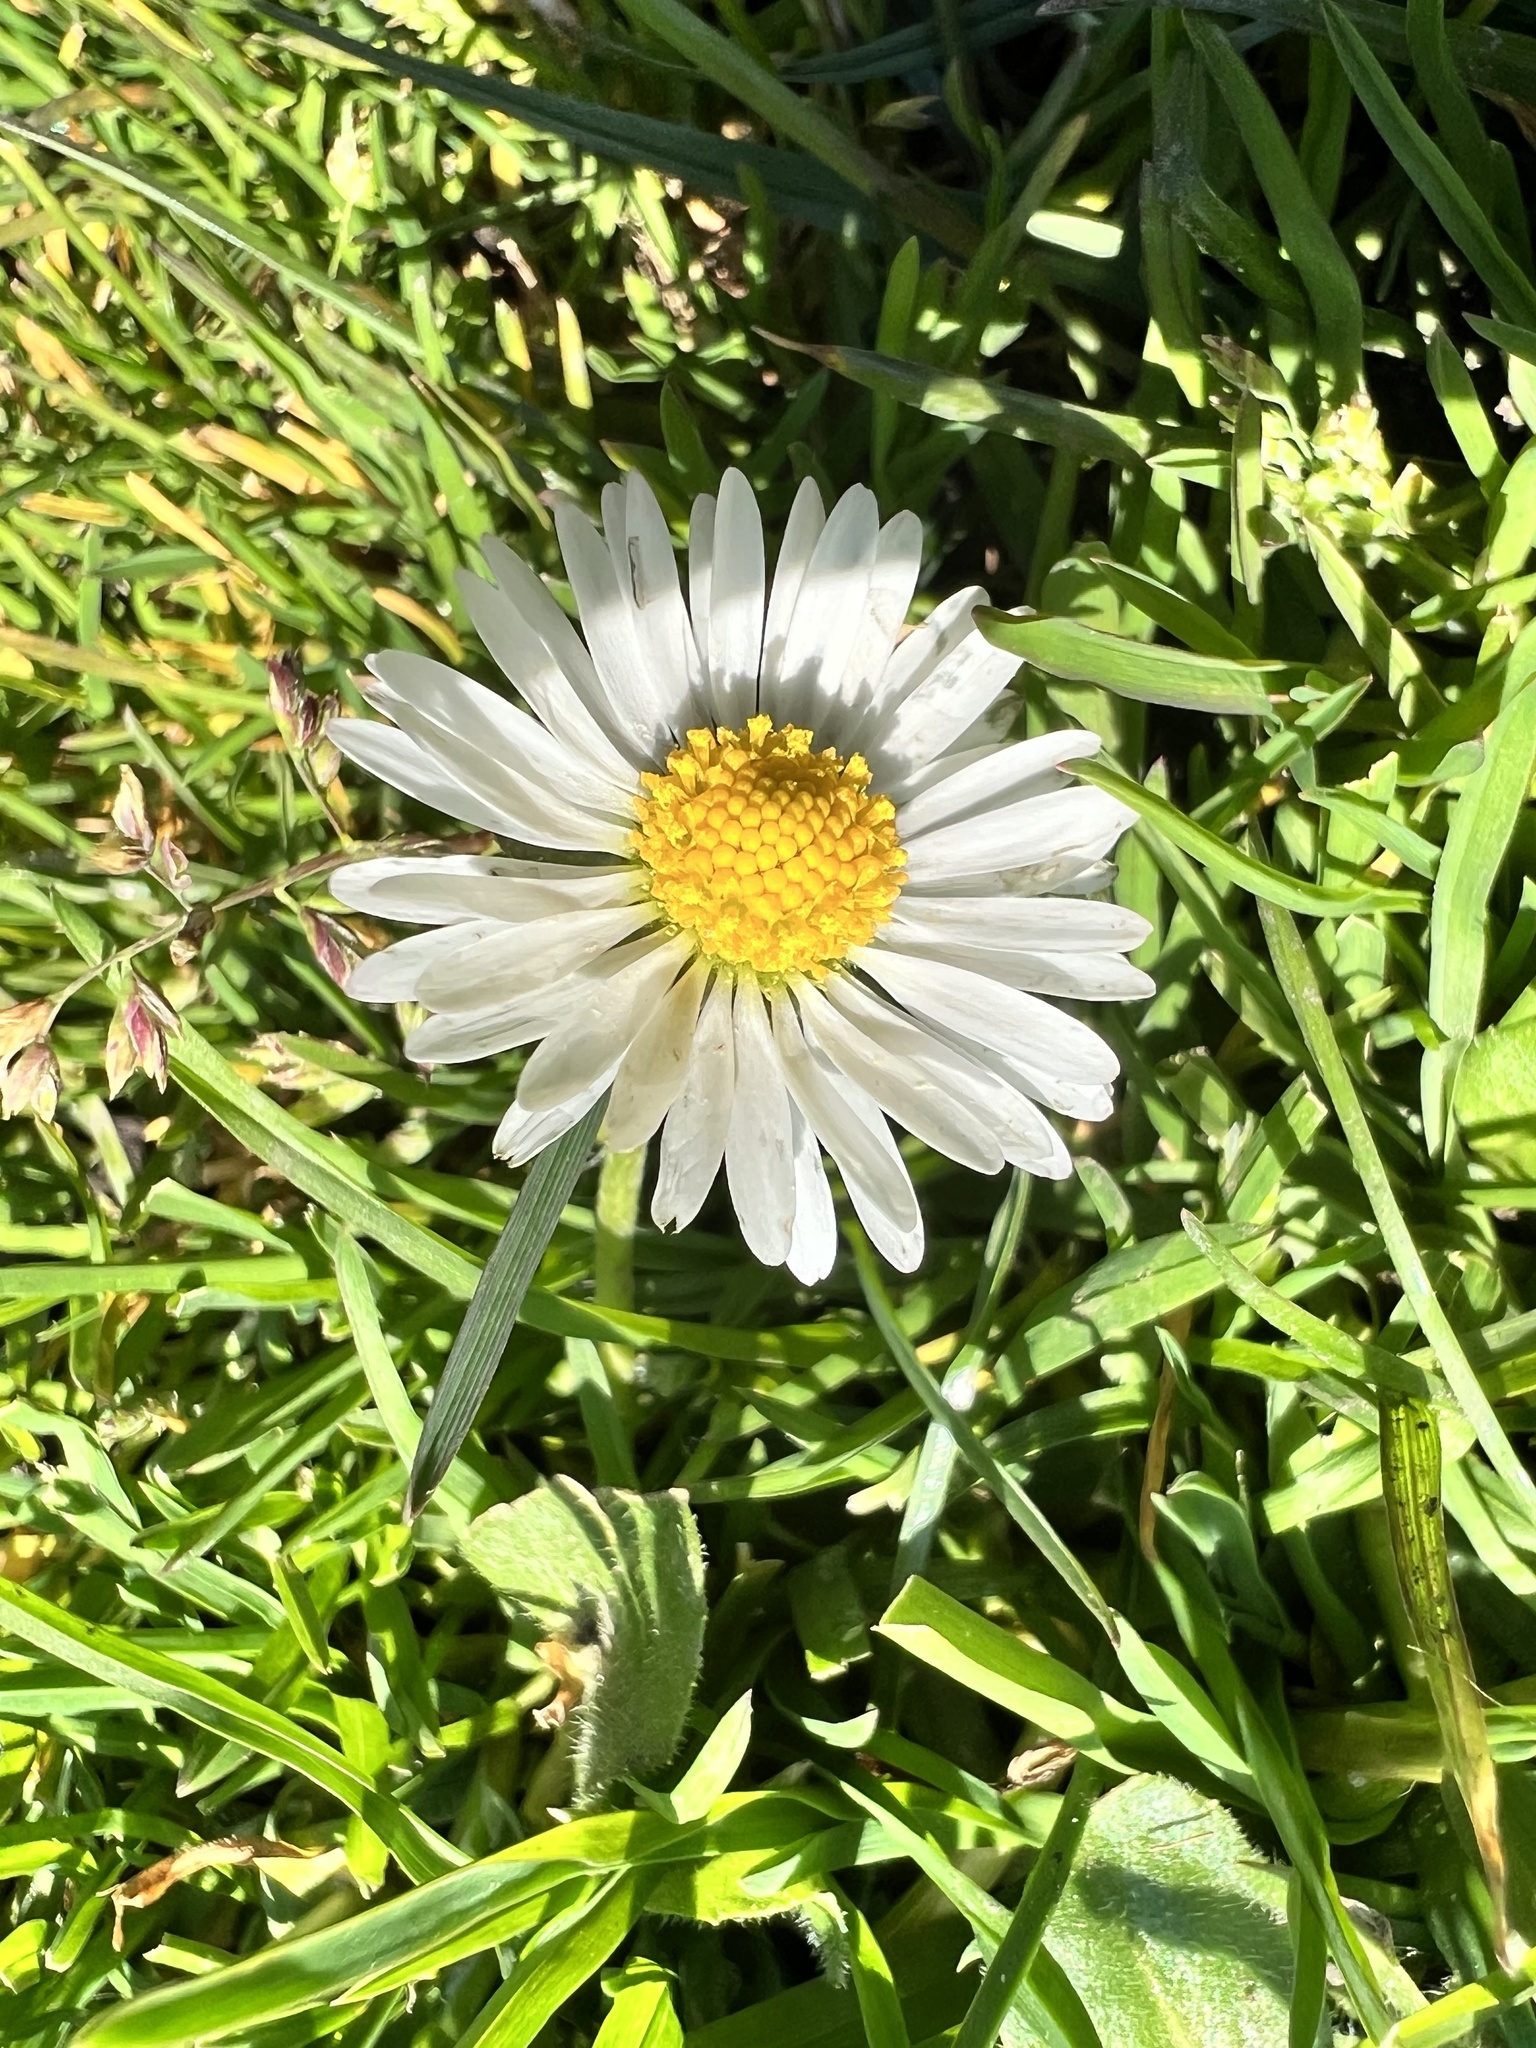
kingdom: Plantae
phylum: Tracheophyta
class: Magnoliopsida
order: Asterales
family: Asteraceae
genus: Bellis
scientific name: Bellis perennis
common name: Lawndaisy
